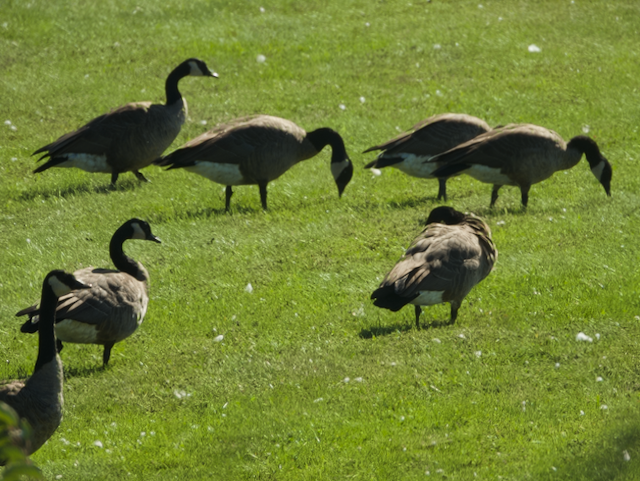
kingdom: Animalia
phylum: Chordata
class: Aves
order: Anseriformes
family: Anatidae
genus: Branta
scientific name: Branta canadensis
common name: Canada goose
